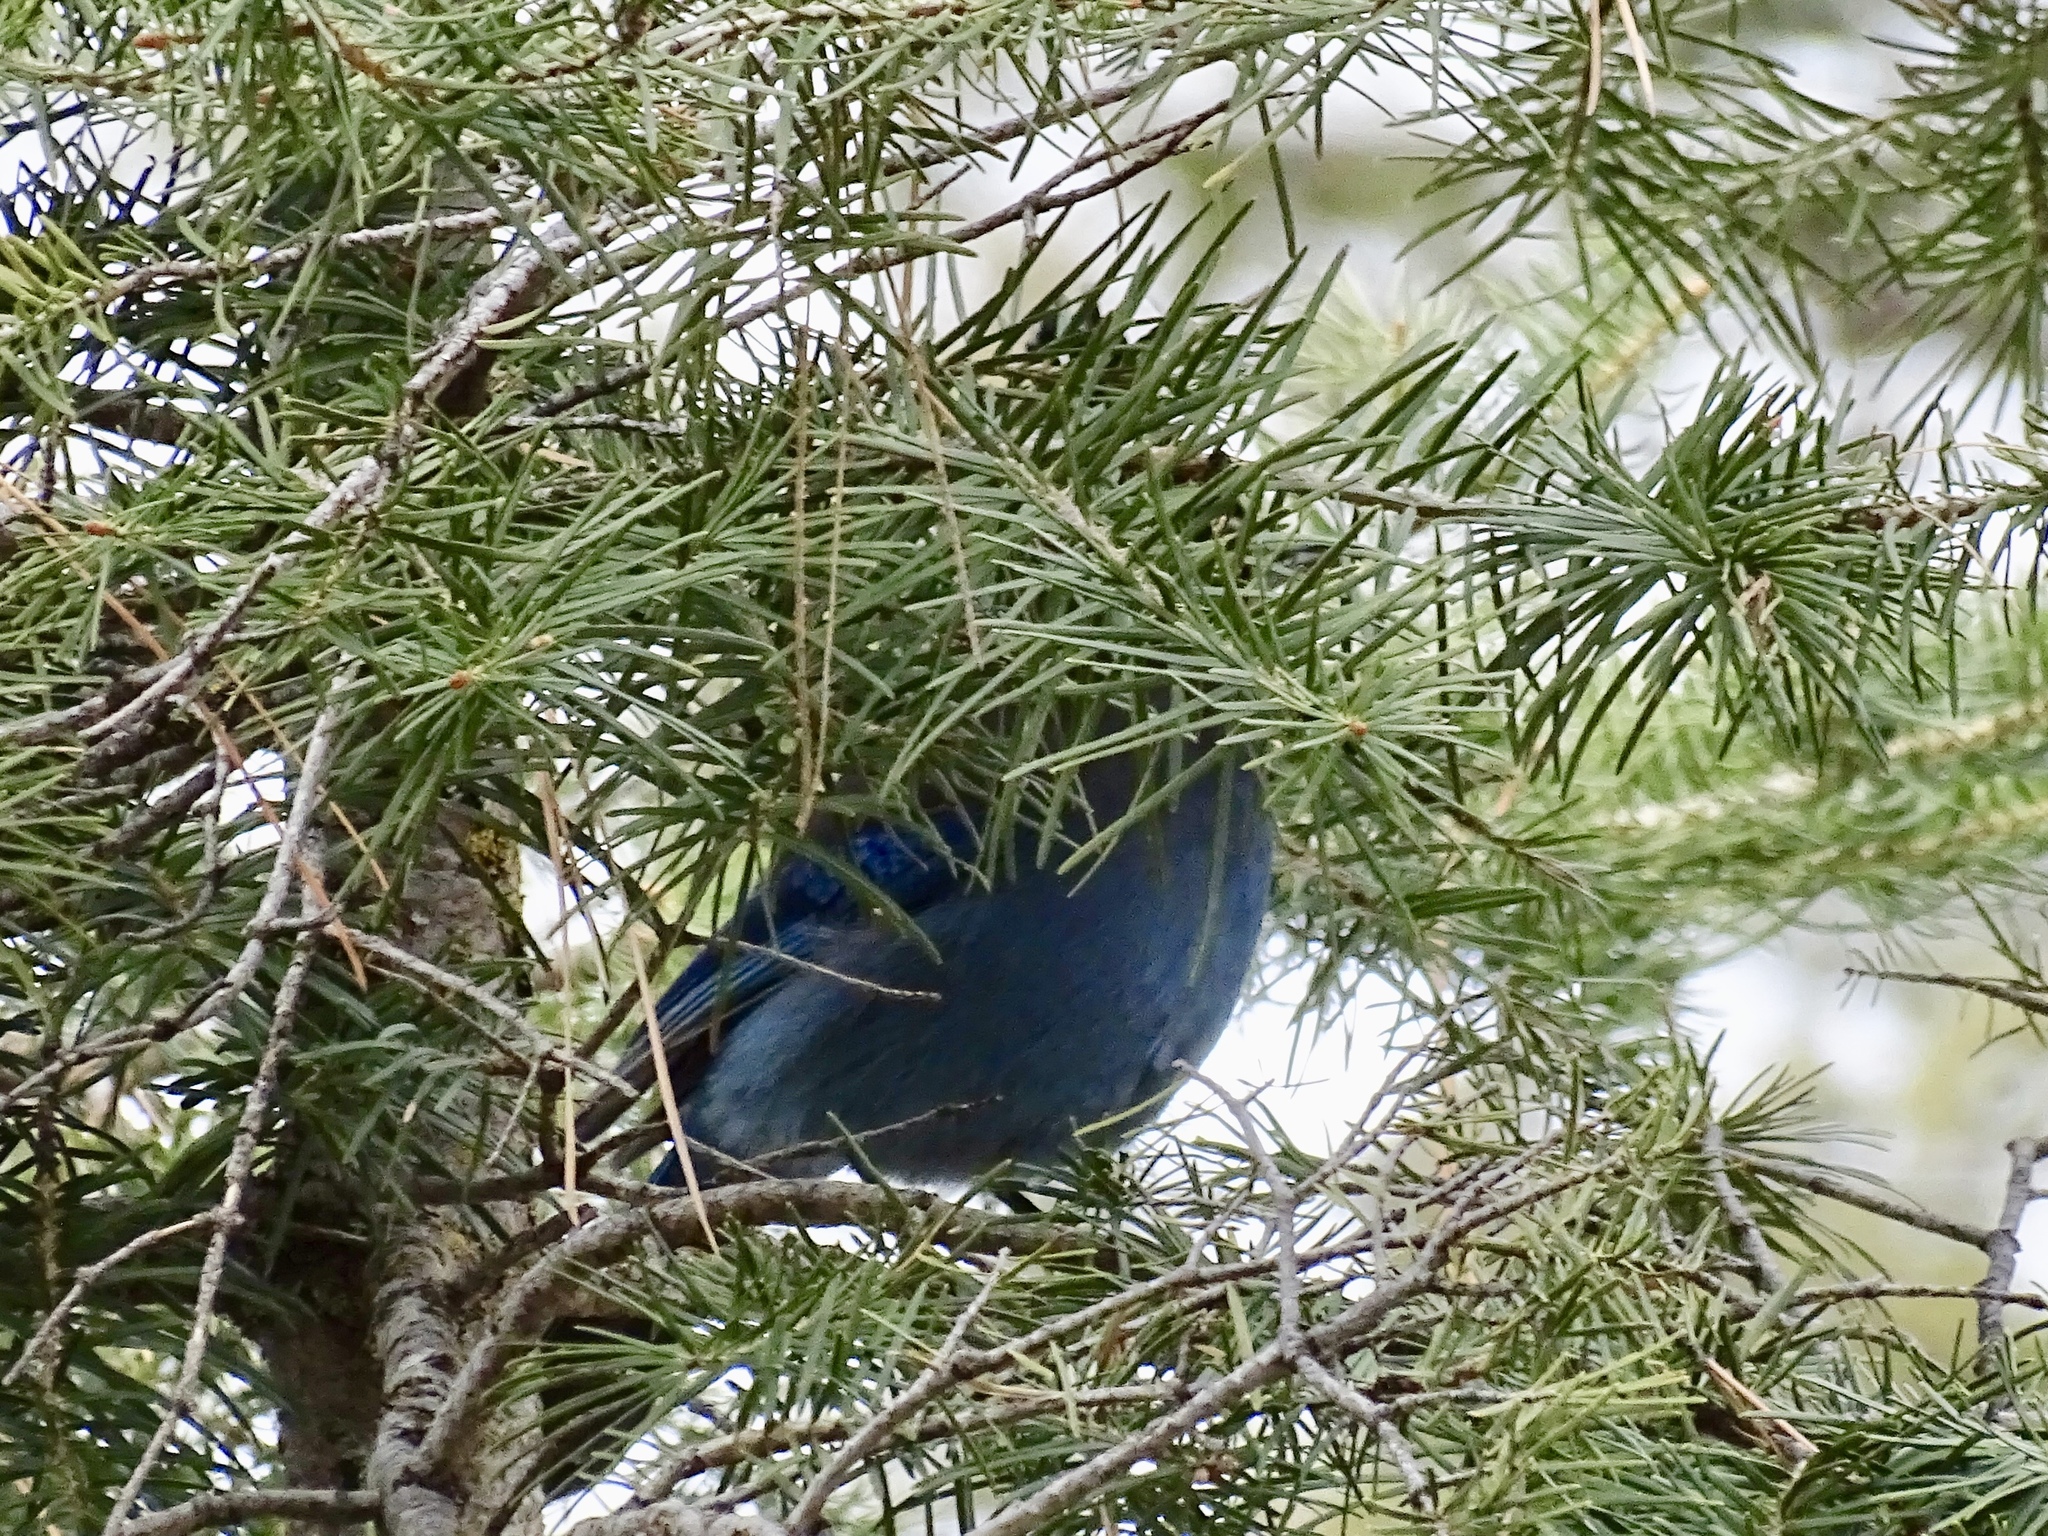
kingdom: Animalia
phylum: Chordata
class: Aves
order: Passeriformes
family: Corvidae
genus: Cyanocitta
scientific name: Cyanocitta stelleri
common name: Steller's jay
